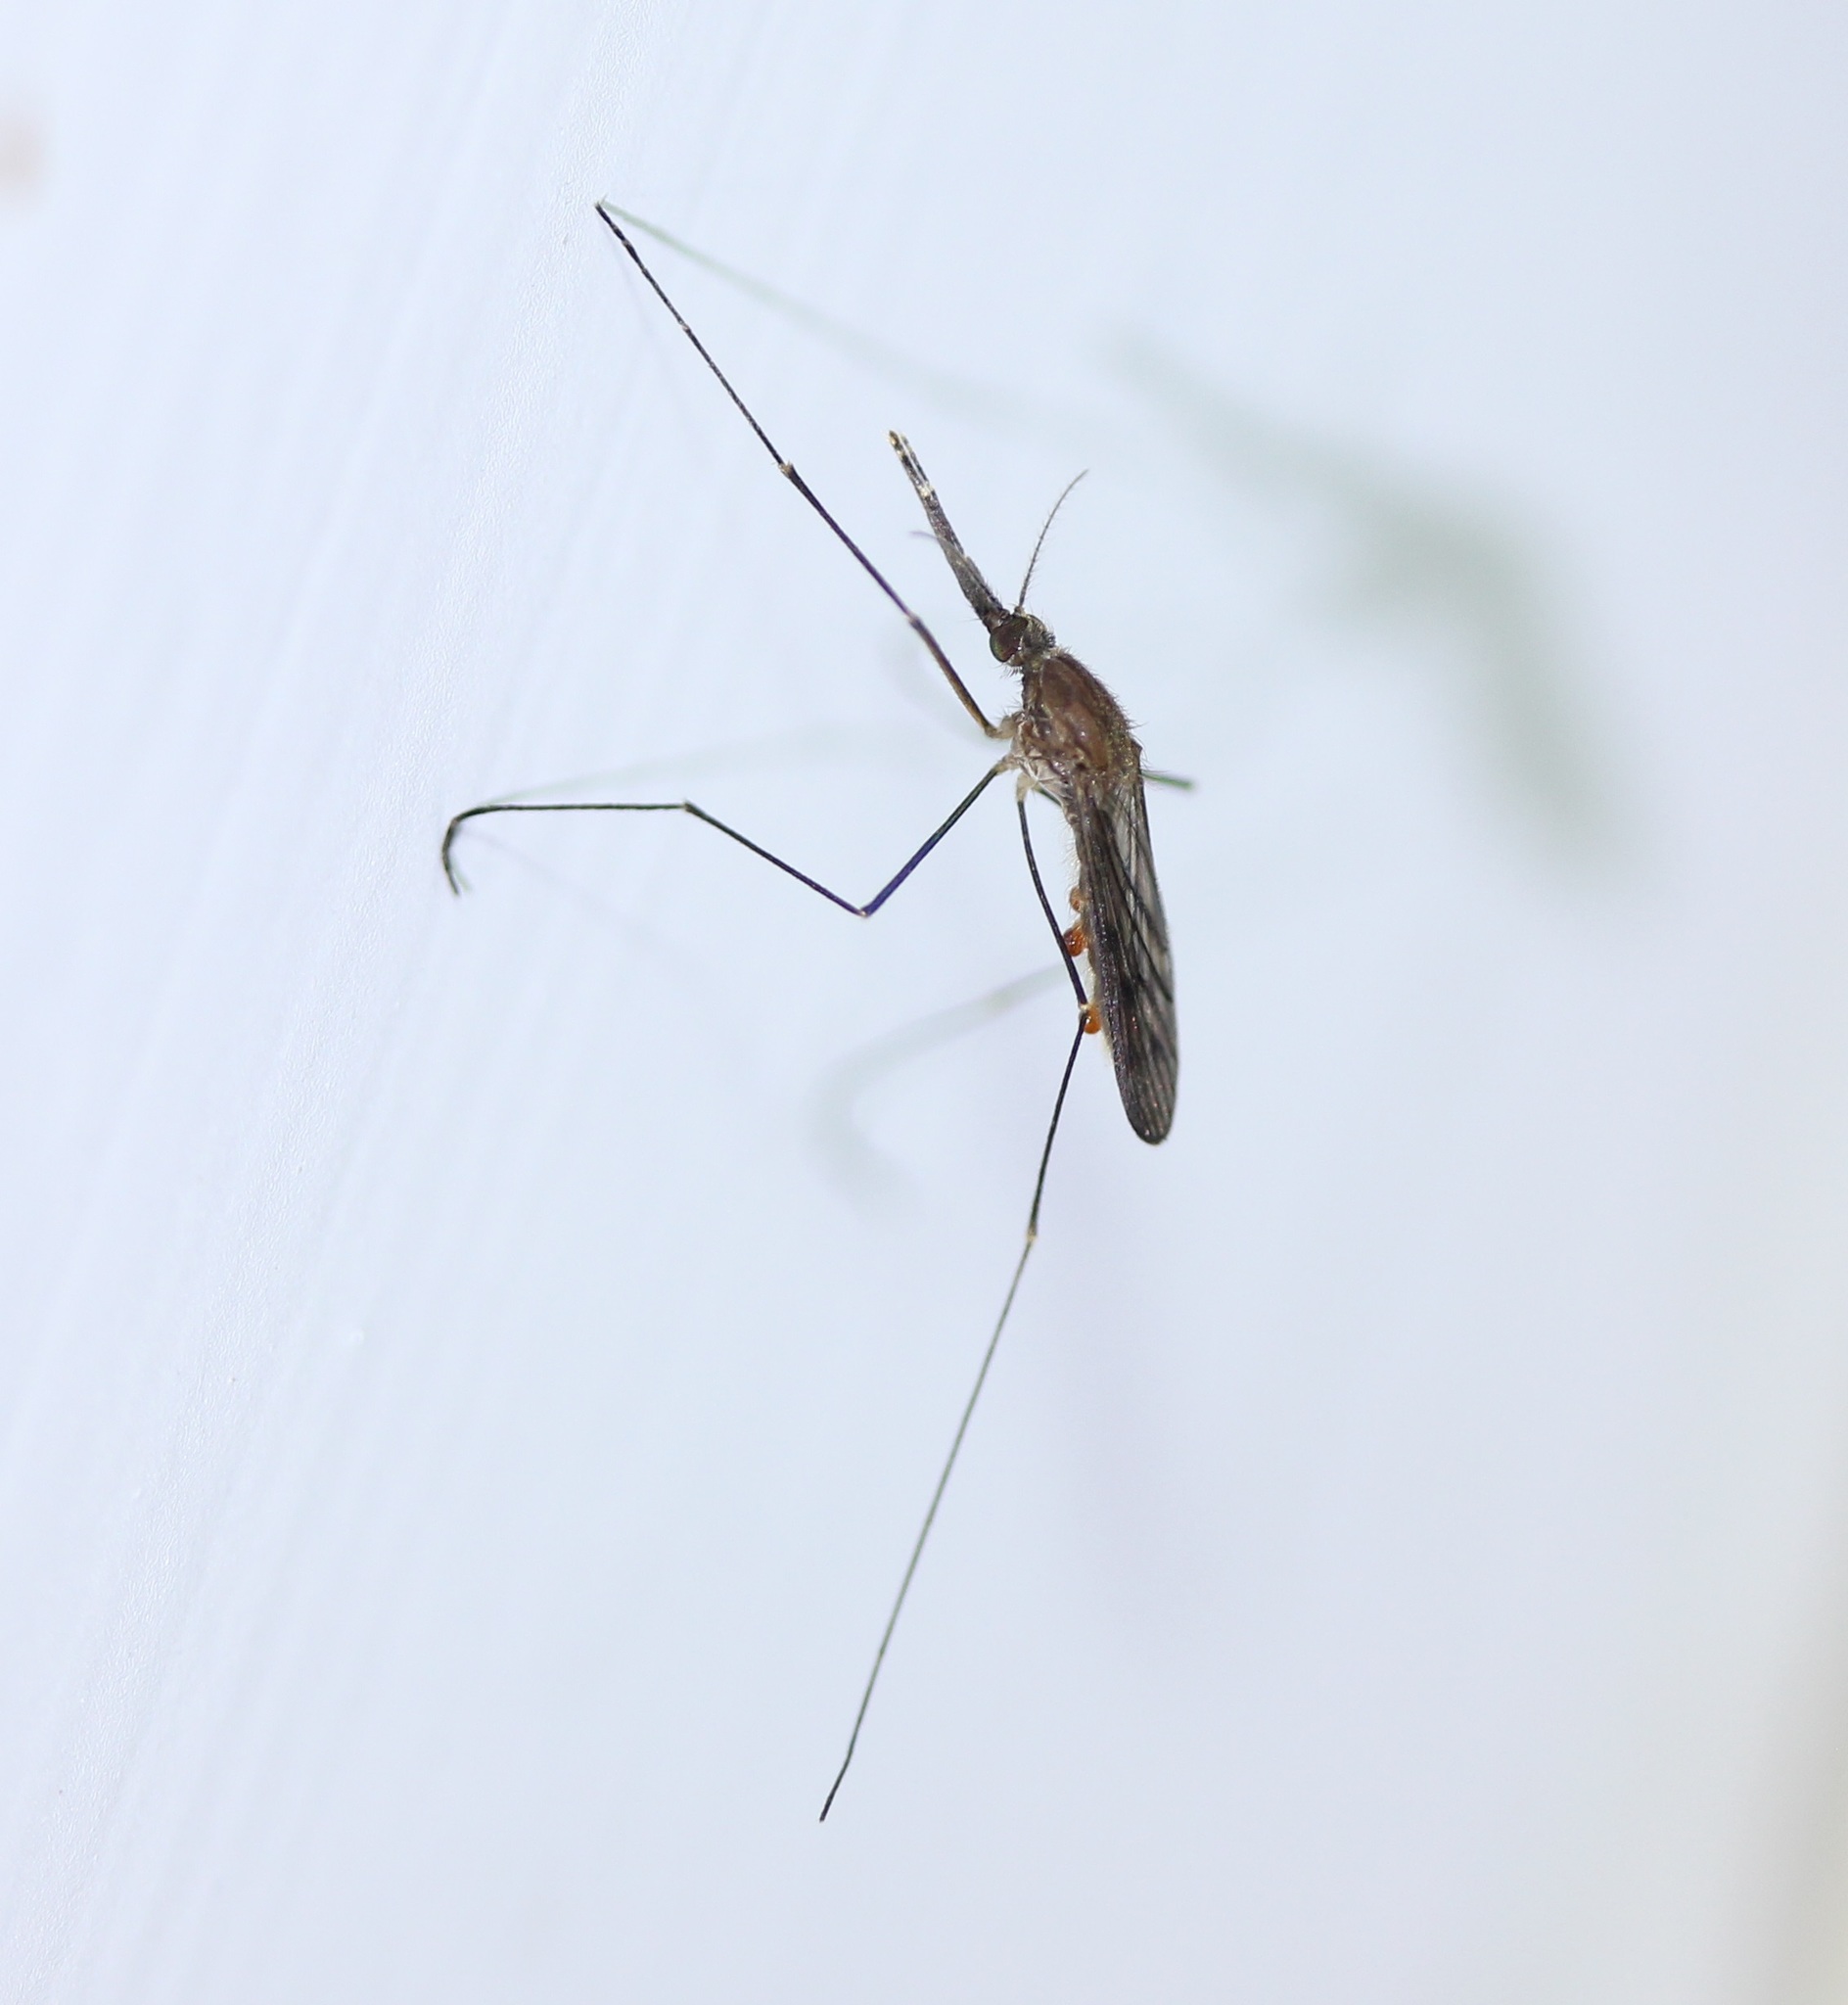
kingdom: Animalia
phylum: Arthropoda
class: Insecta
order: Diptera
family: Culicidae
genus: Anopheles
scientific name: Anopheles walkeri
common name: Walker's anopheles
